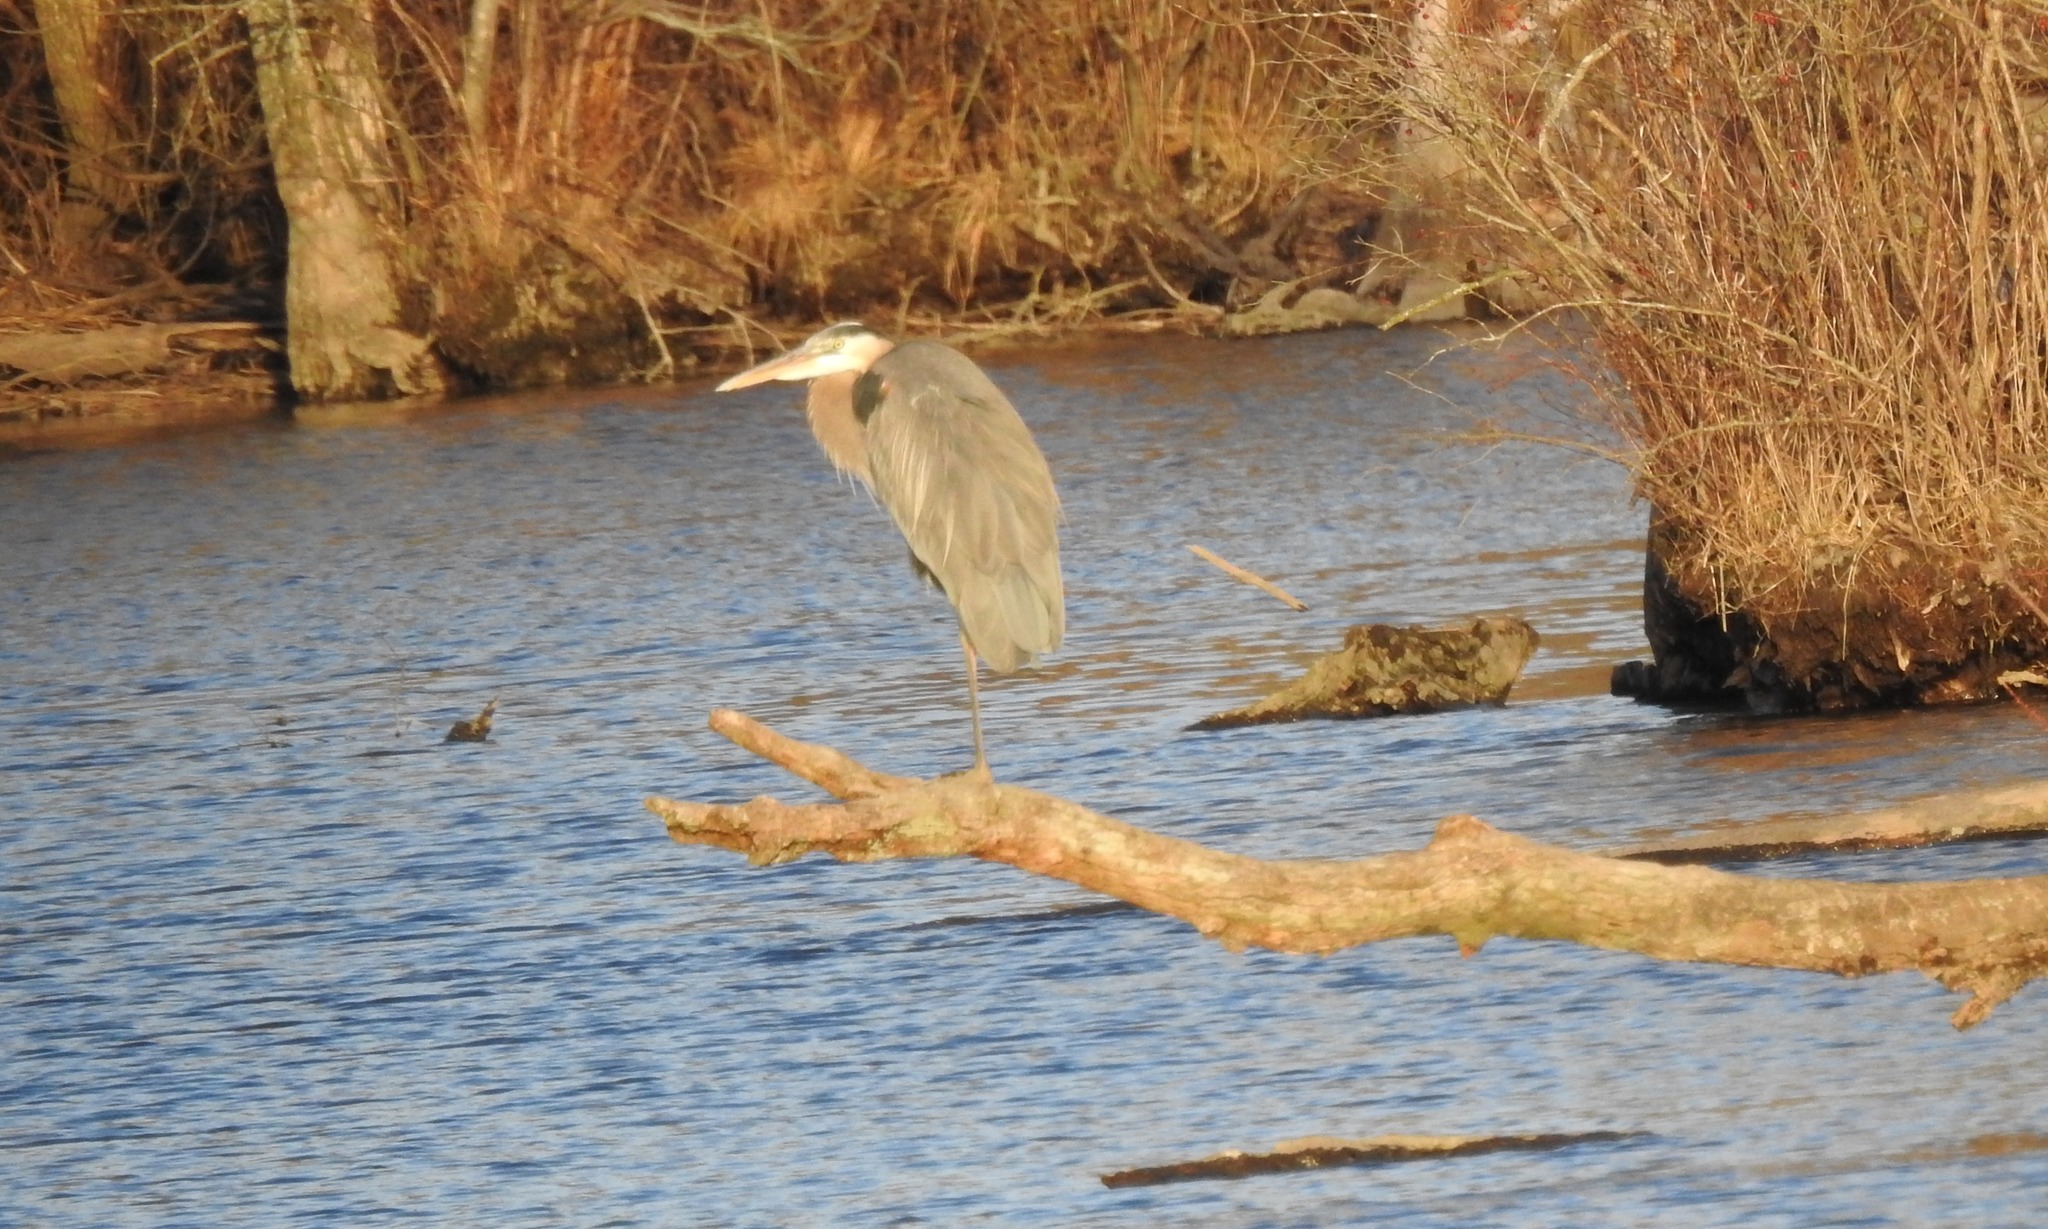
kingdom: Animalia
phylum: Chordata
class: Aves
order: Pelecaniformes
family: Ardeidae
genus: Ardea
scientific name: Ardea herodias
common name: Great blue heron
